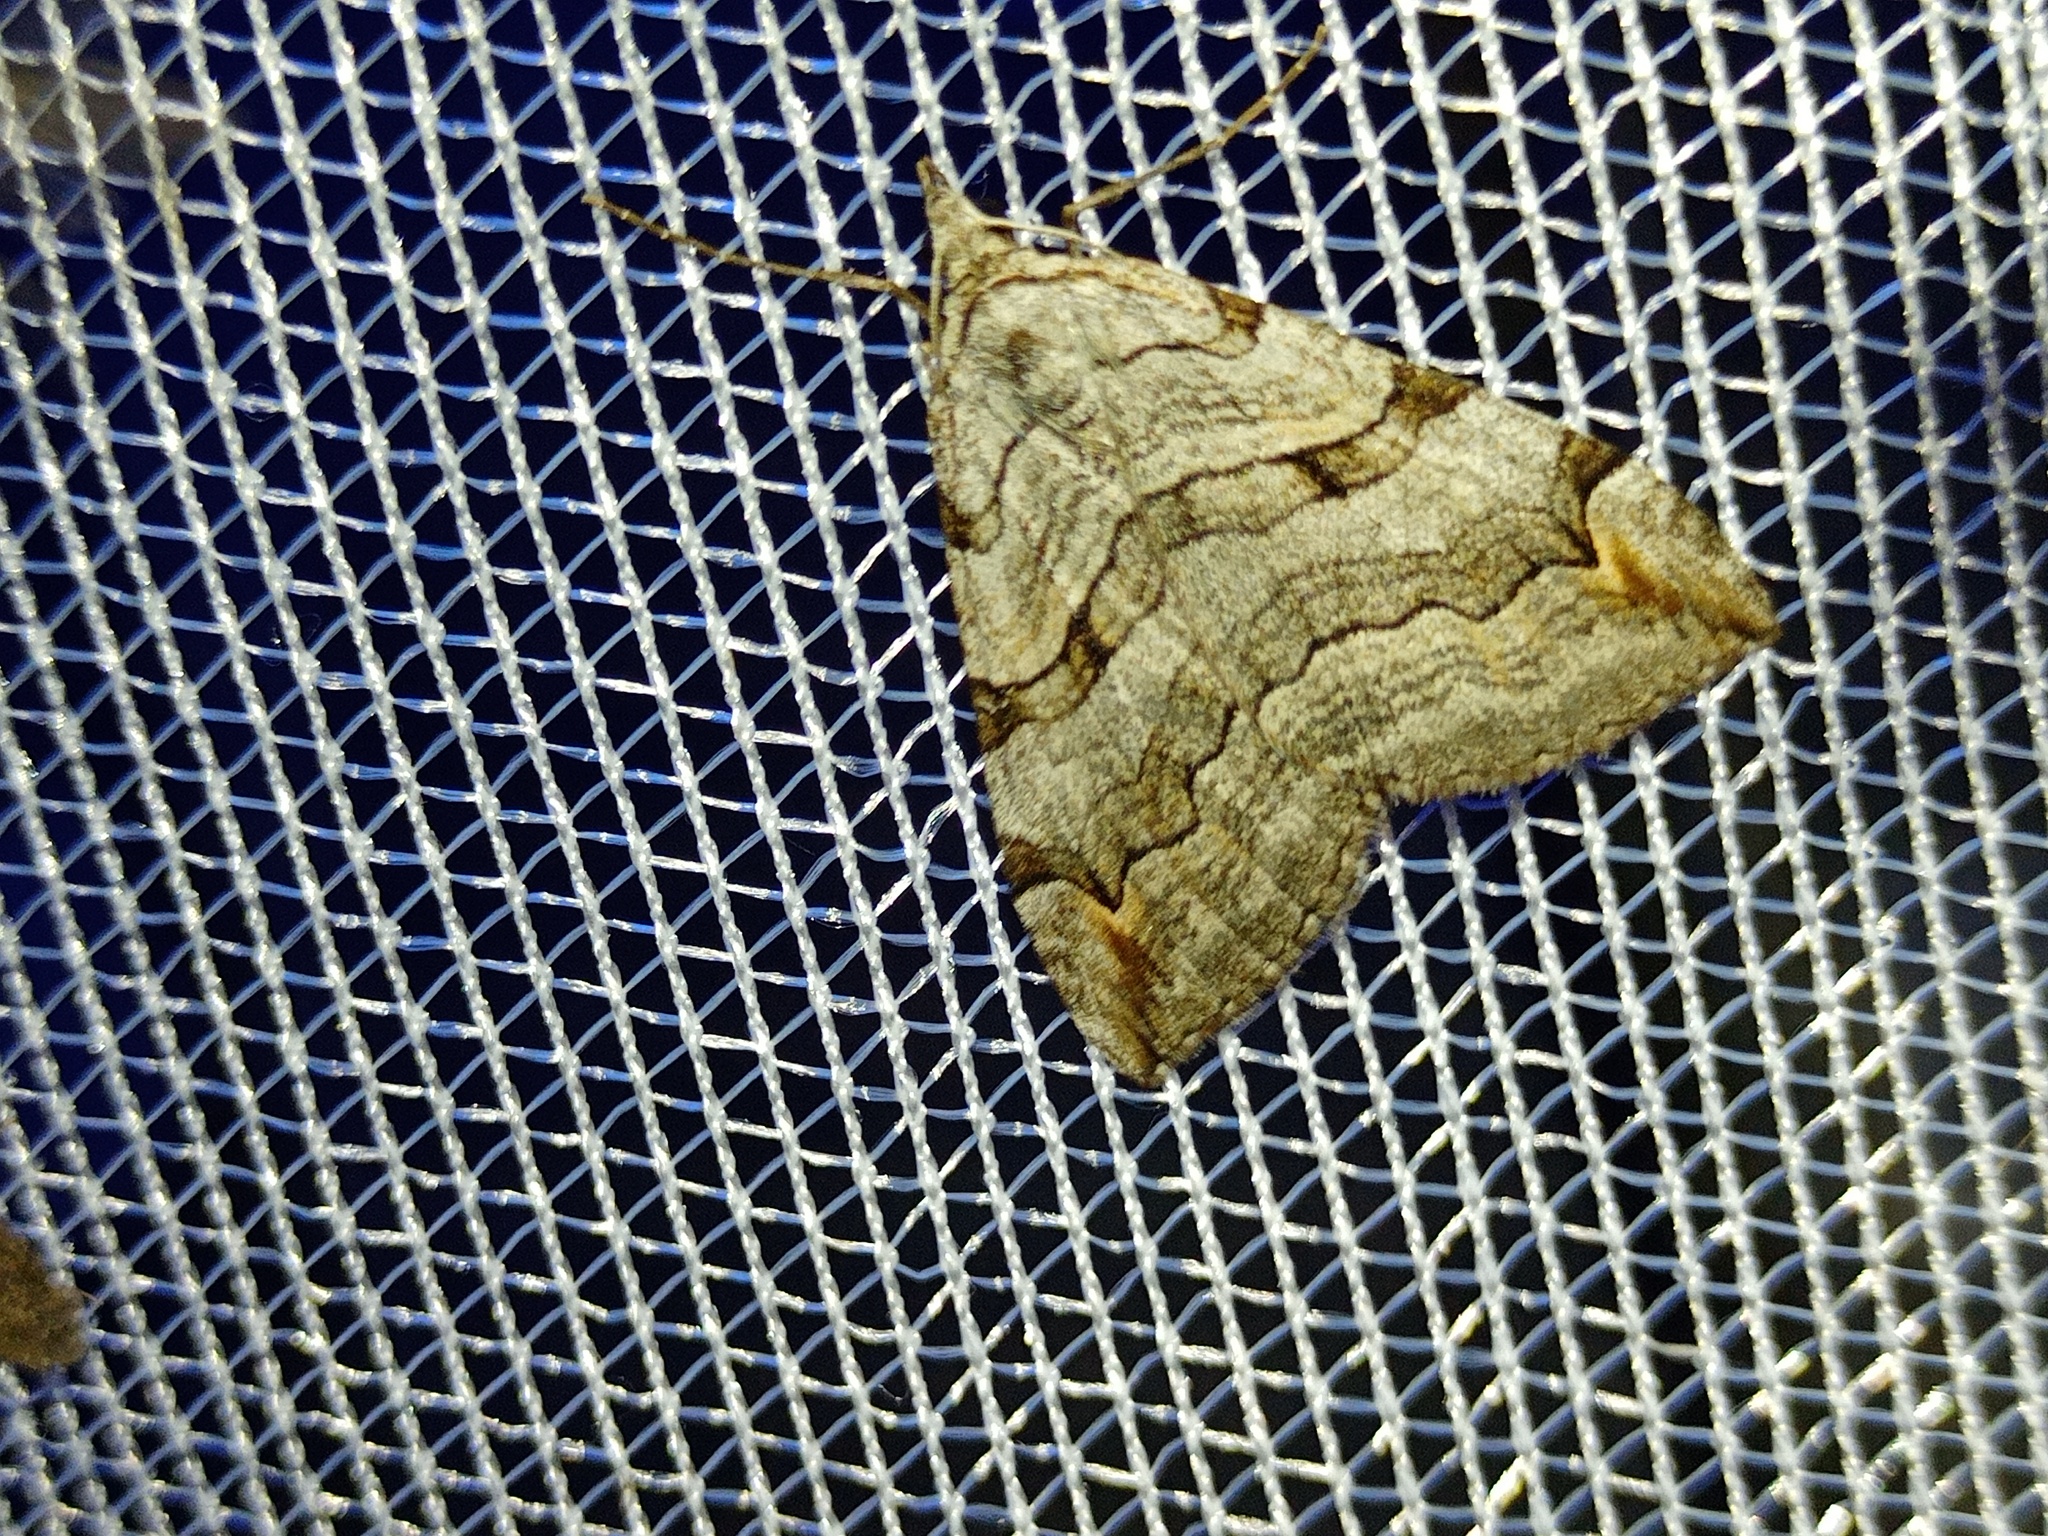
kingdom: Animalia
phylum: Arthropoda
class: Insecta
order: Lepidoptera
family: Geometridae
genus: Aplocera
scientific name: Aplocera plagiata
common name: Treble-bar
